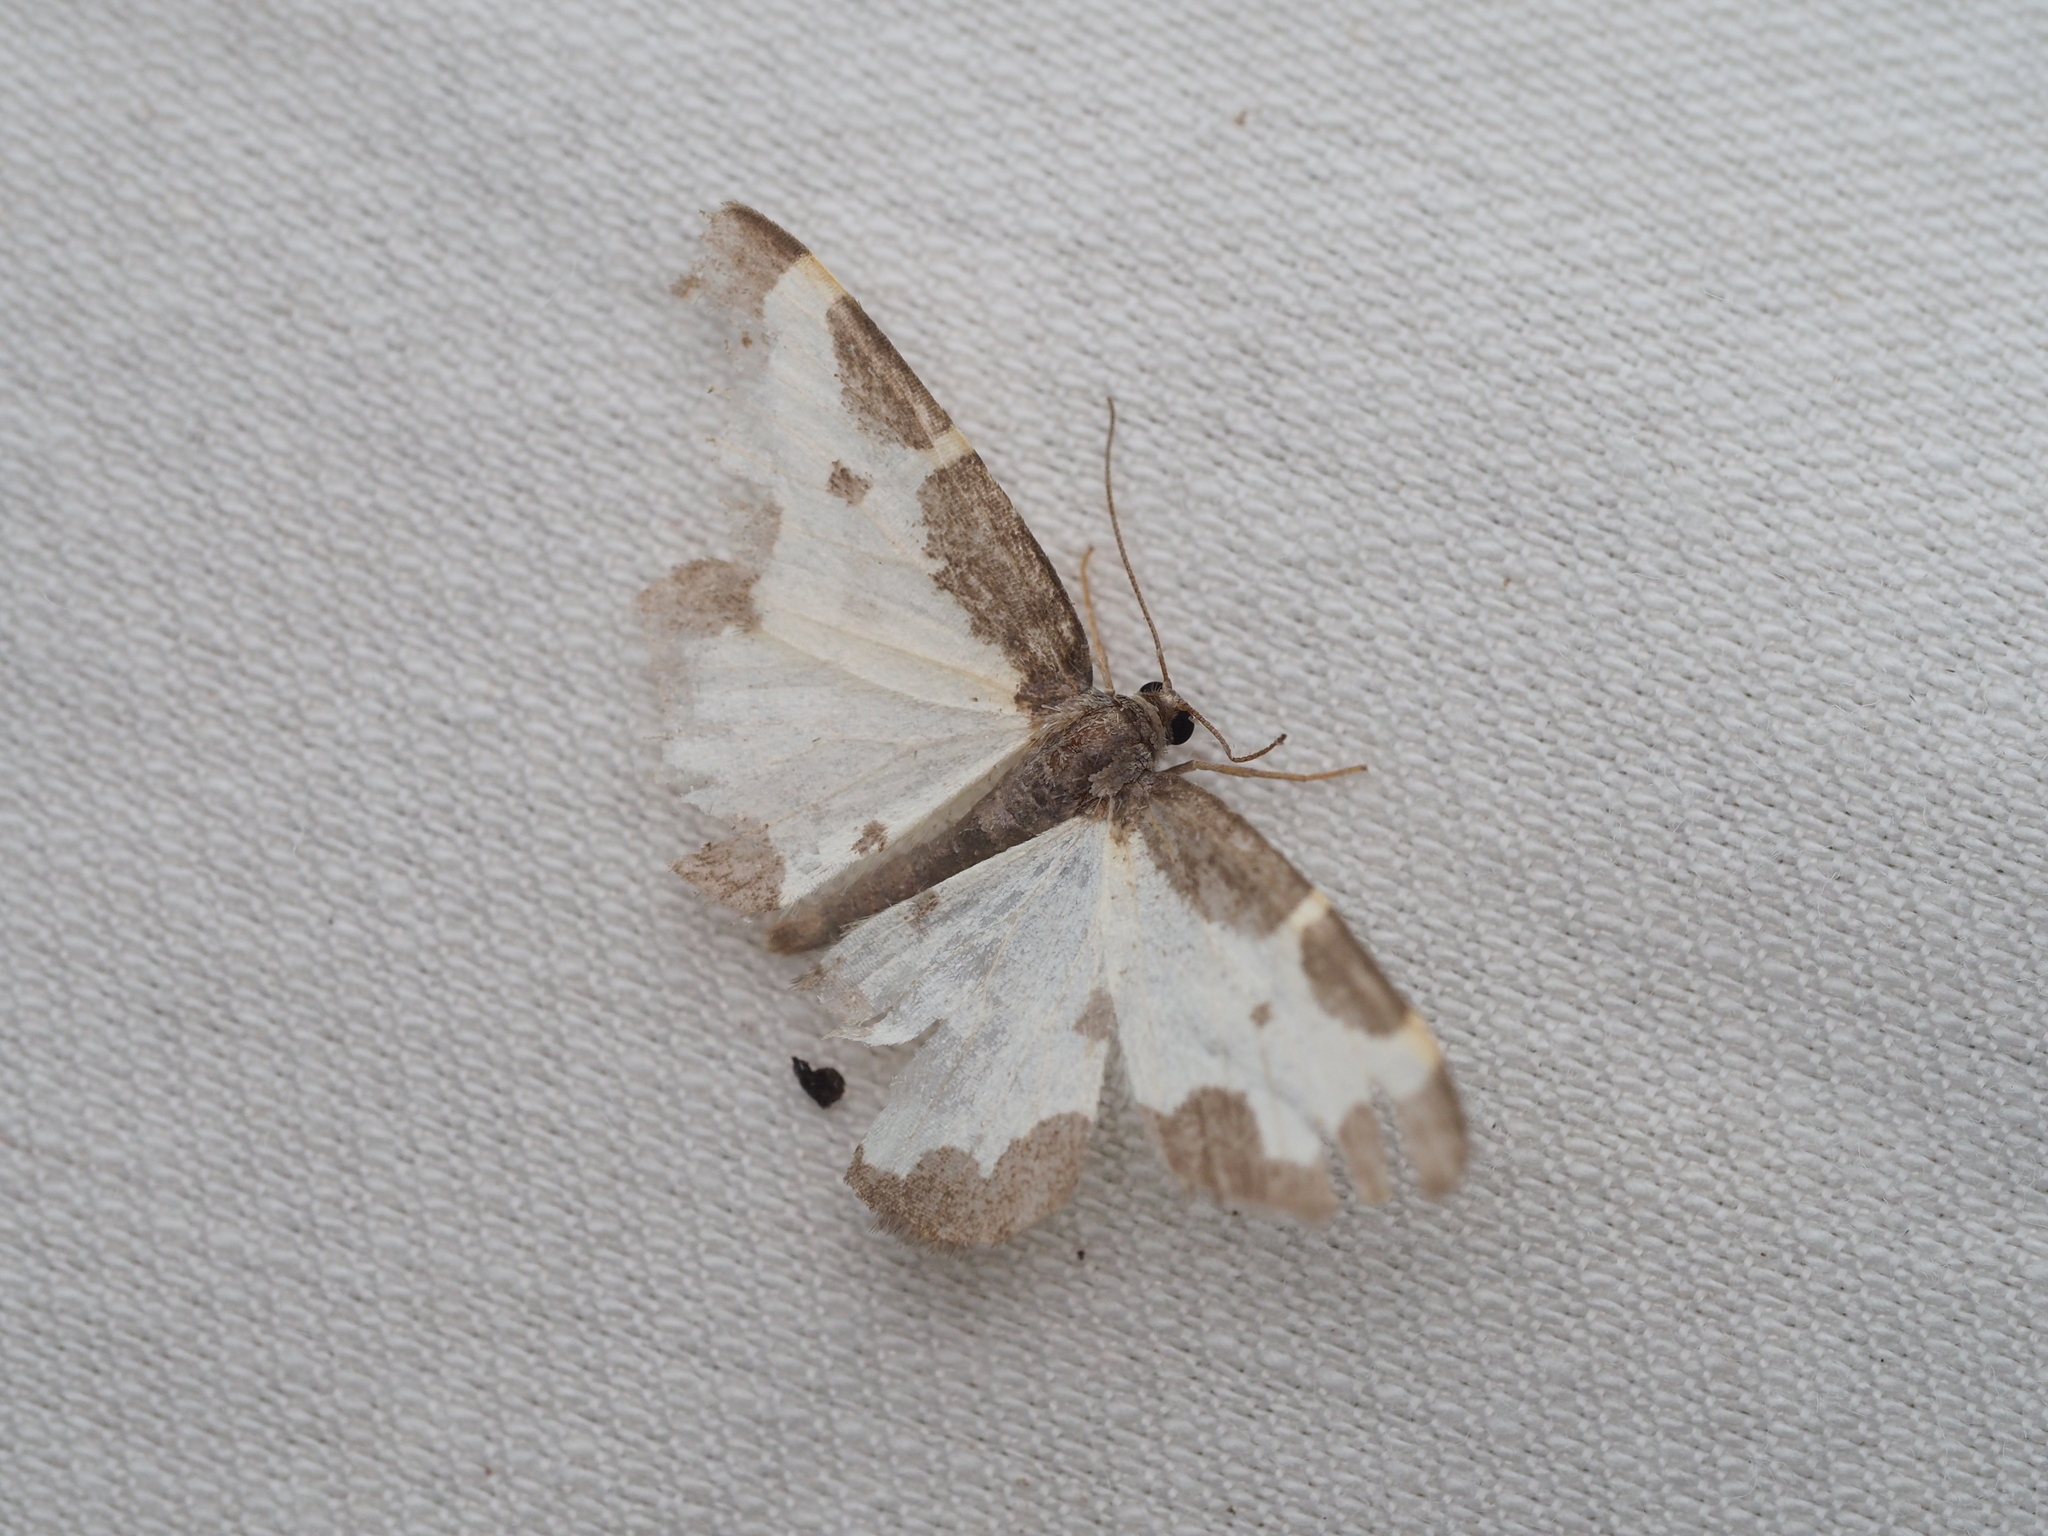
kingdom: Animalia
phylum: Arthropoda
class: Insecta
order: Lepidoptera
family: Geometridae
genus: Lomaspilis
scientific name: Lomaspilis marginata
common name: Clouded border
